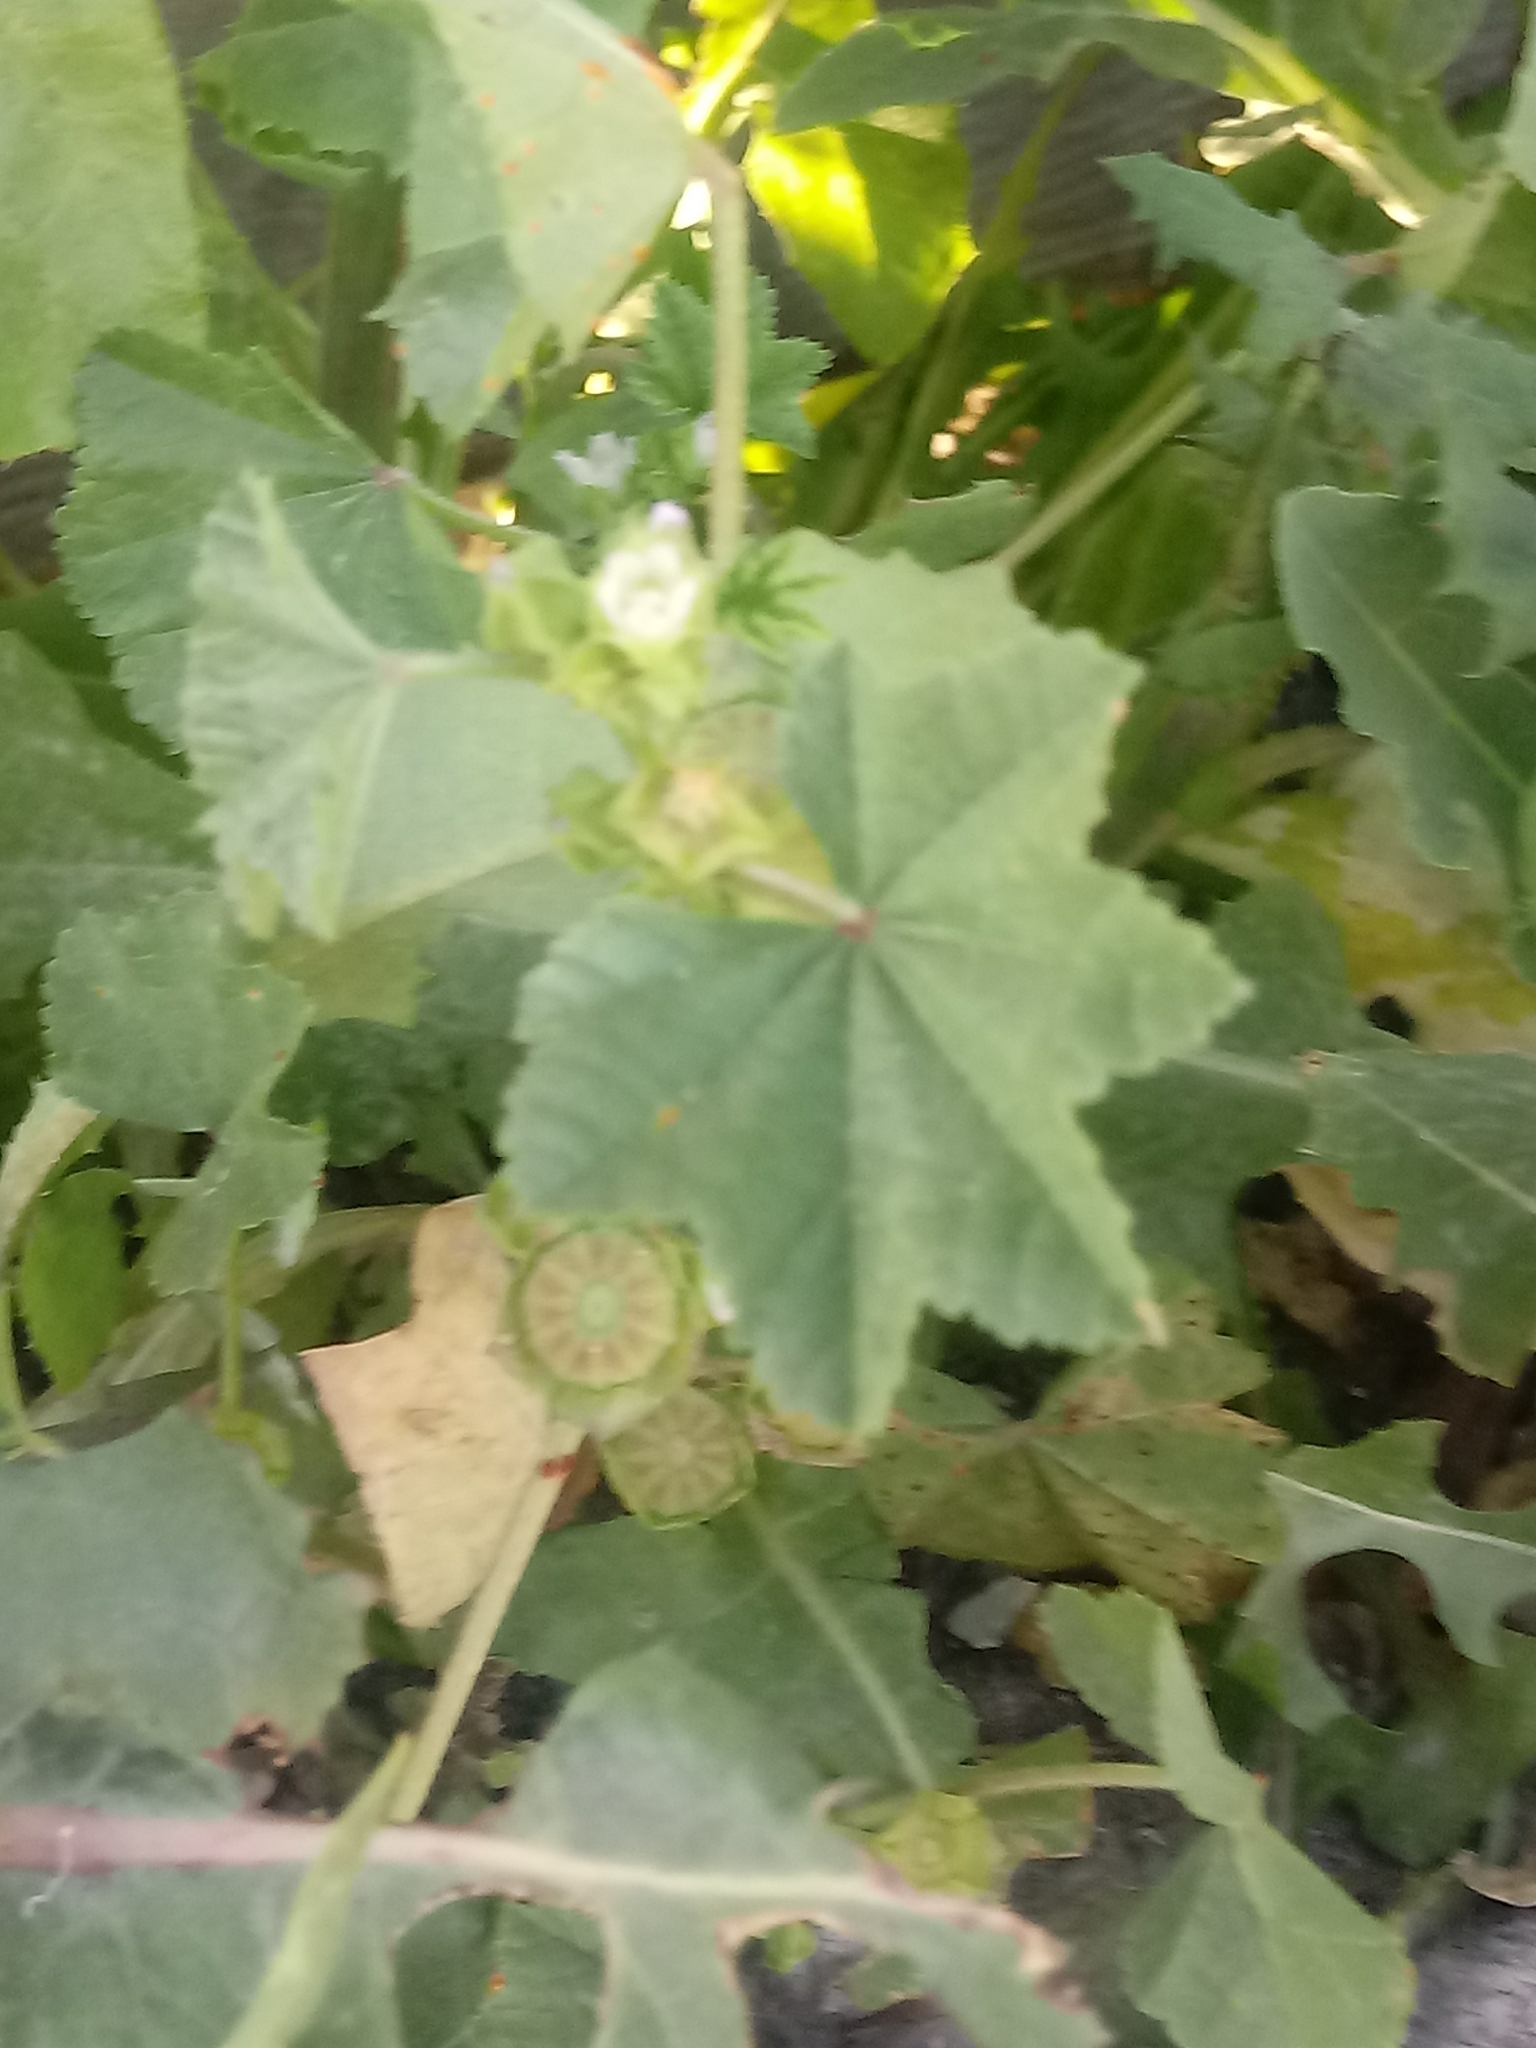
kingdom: Plantae
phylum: Tracheophyta
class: Magnoliopsida
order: Malvales
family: Malvaceae
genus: Malva
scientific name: Malva parviflora
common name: Least mallow
